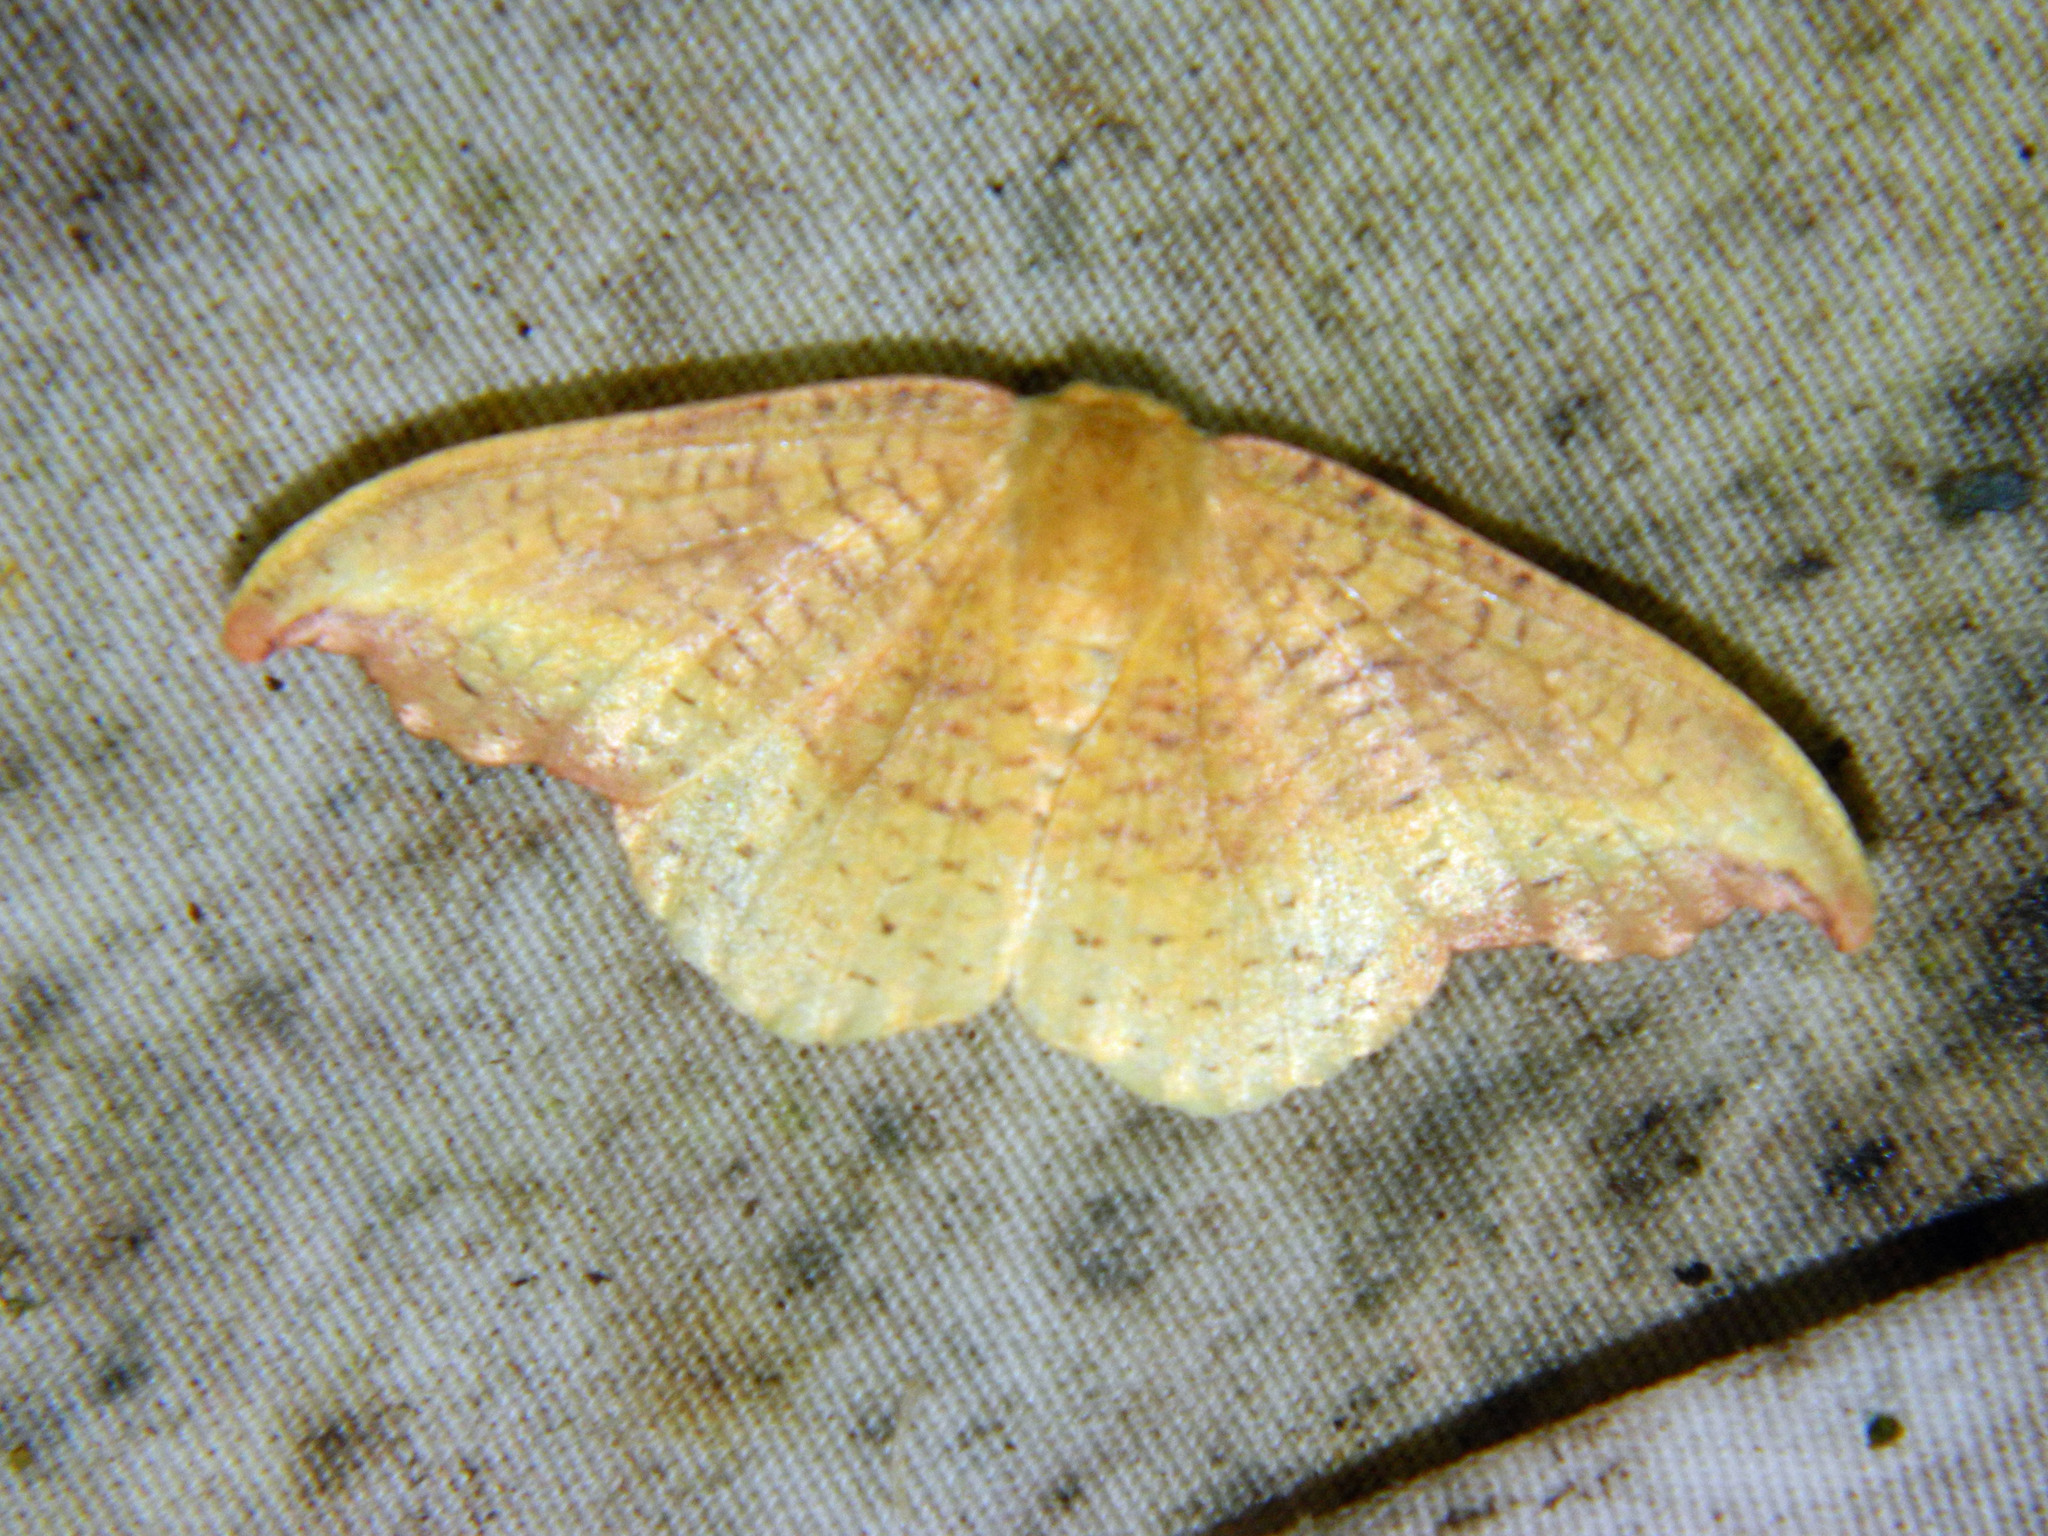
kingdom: Animalia
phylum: Arthropoda
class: Insecta
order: Lepidoptera
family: Drepanidae
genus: Oreta
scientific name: Oreta rosea
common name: Rose hooktip
